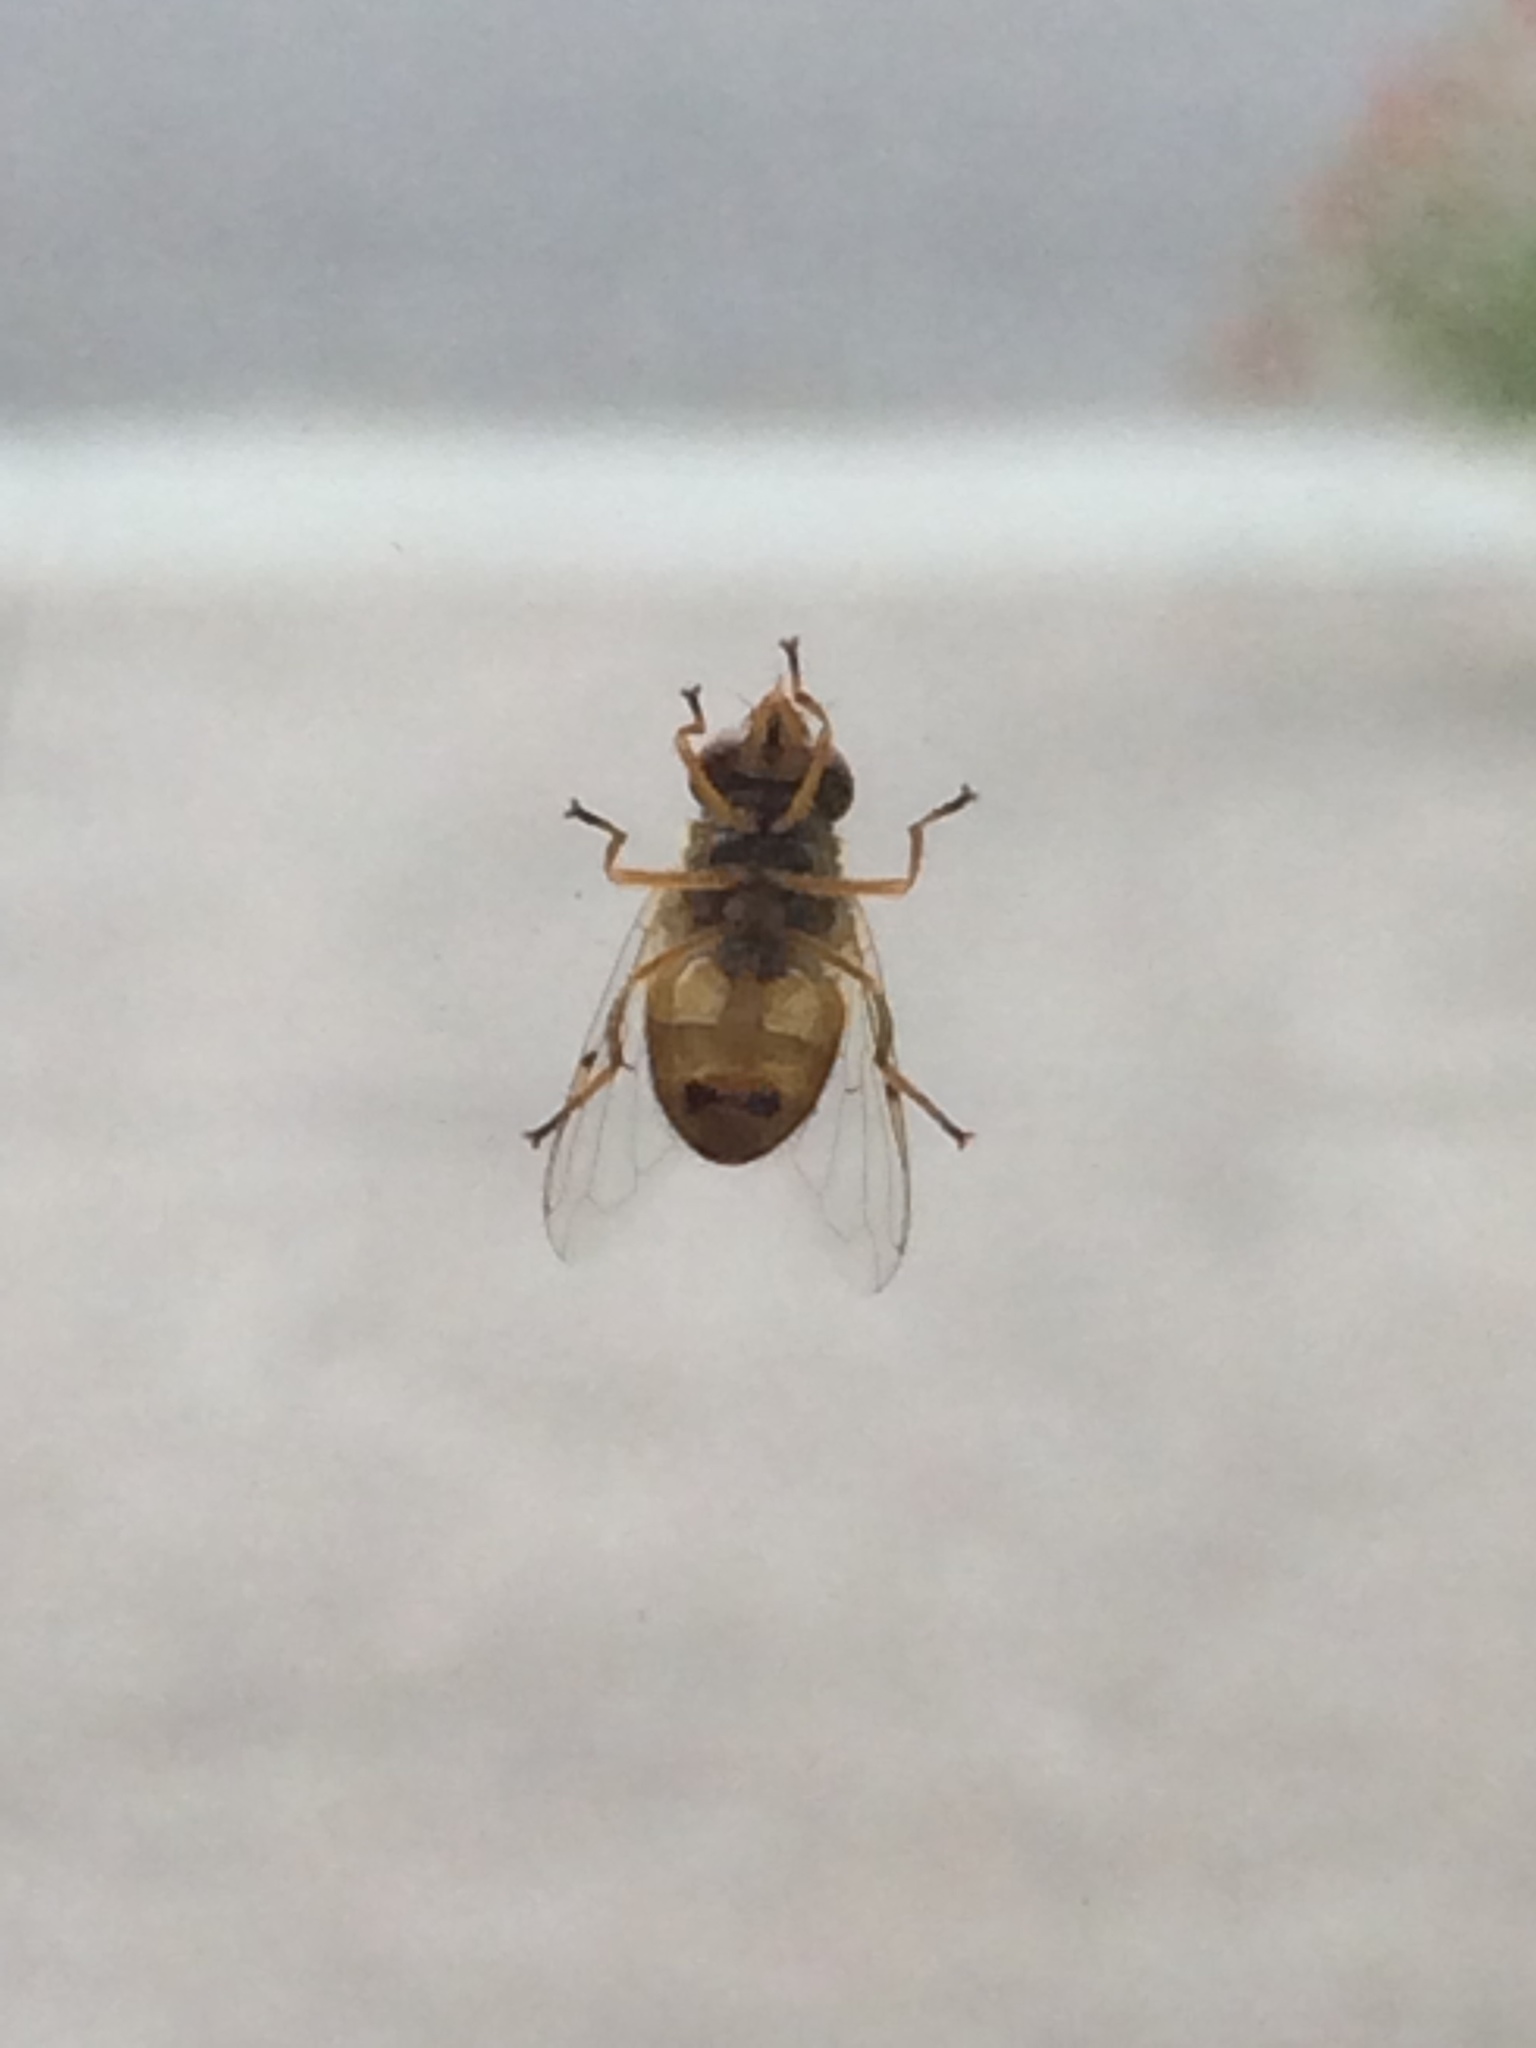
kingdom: Animalia
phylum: Arthropoda
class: Insecta
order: Diptera
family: Syrphidae
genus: Copestylum
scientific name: Copestylum sexmaculatum
